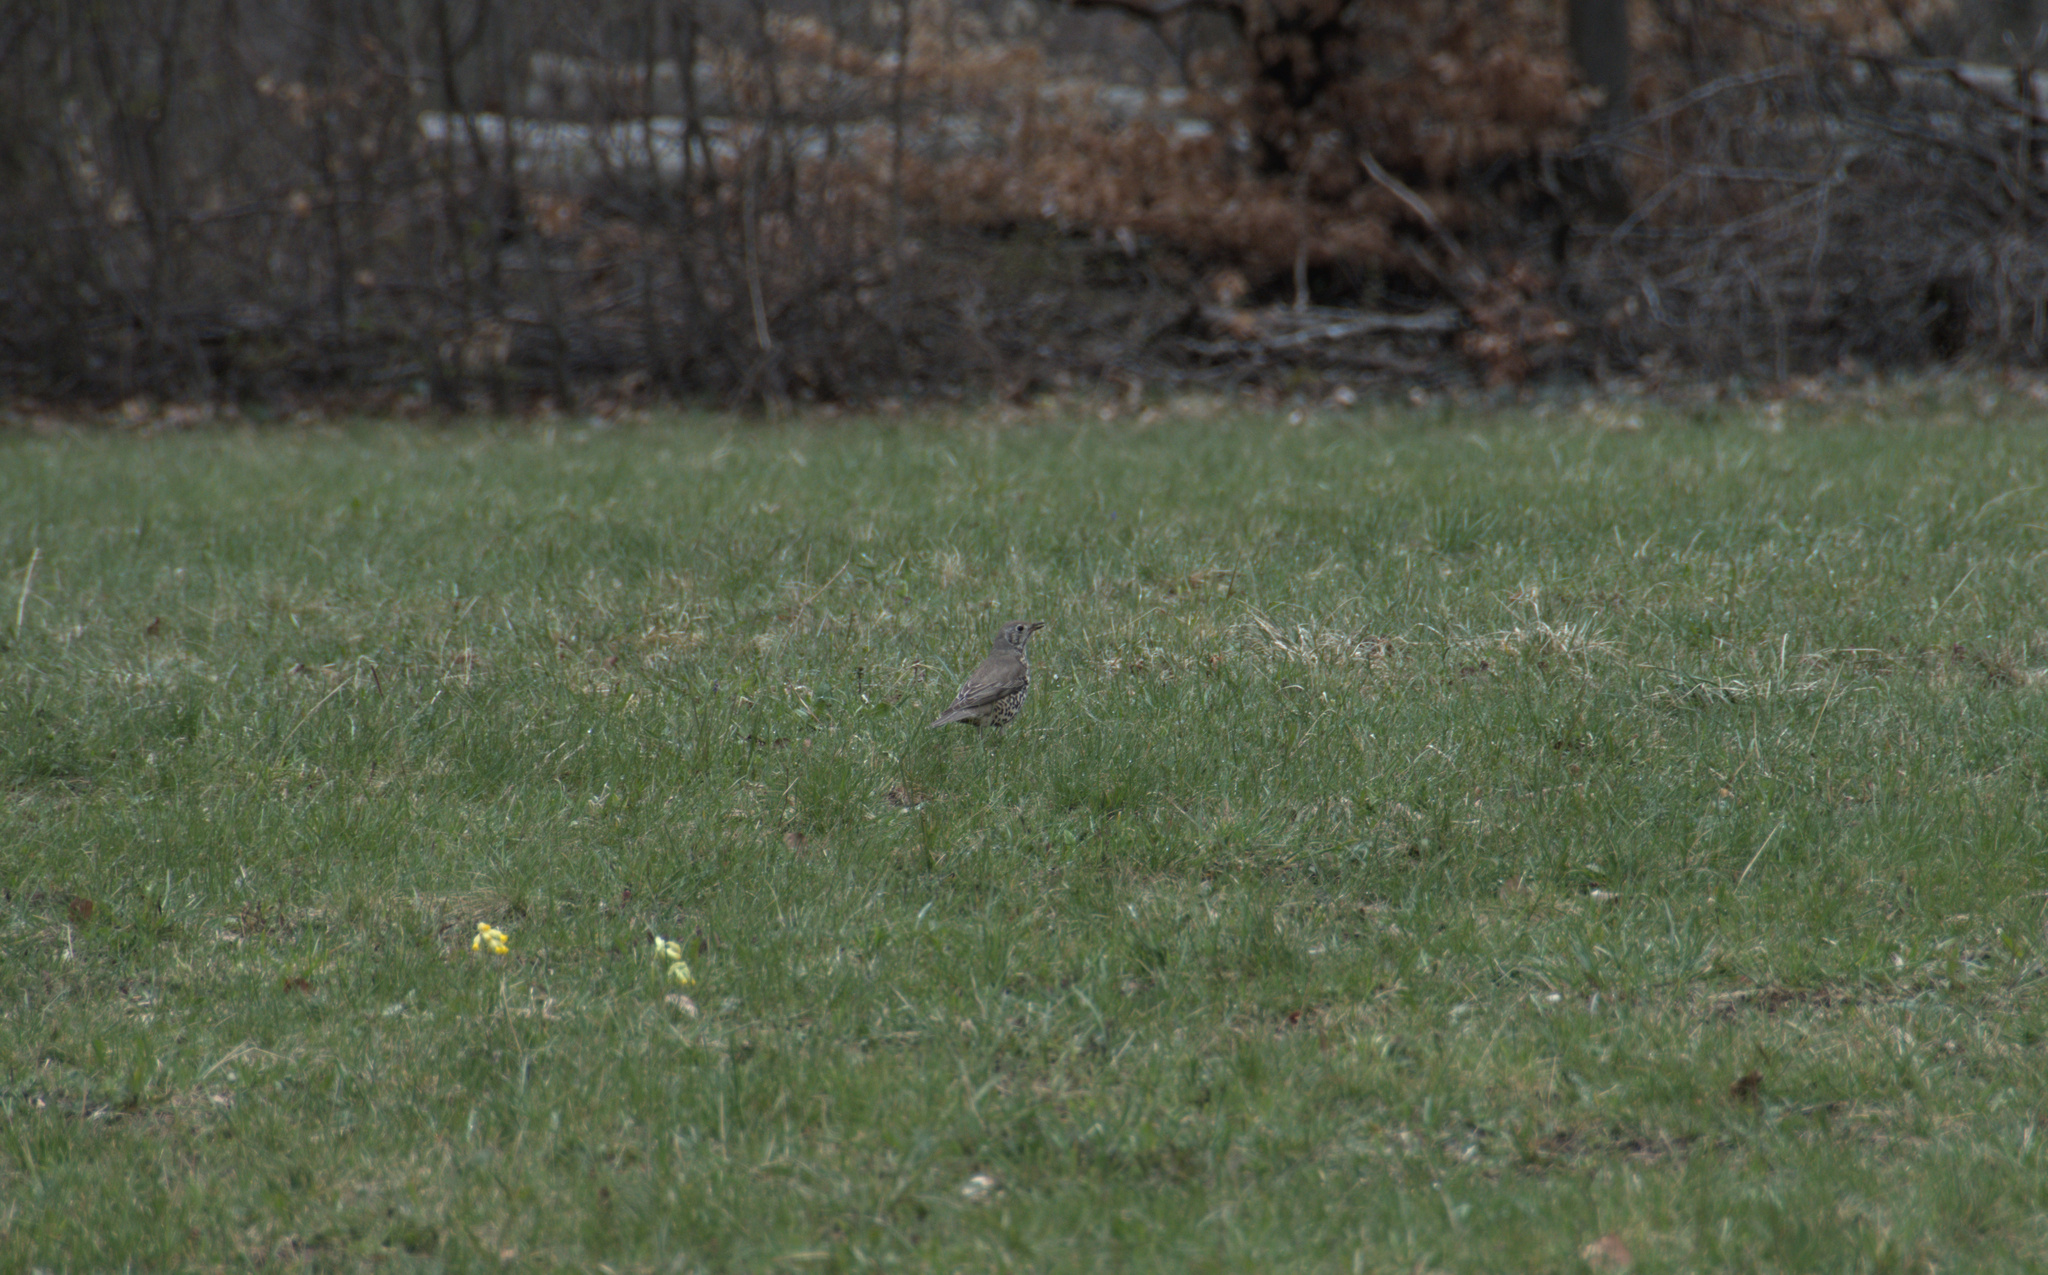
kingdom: Animalia
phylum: Chordata
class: Aves
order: Passeriformes
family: Turdidae
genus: Turdus
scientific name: Turdus viscivorus
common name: Mistle thrush
